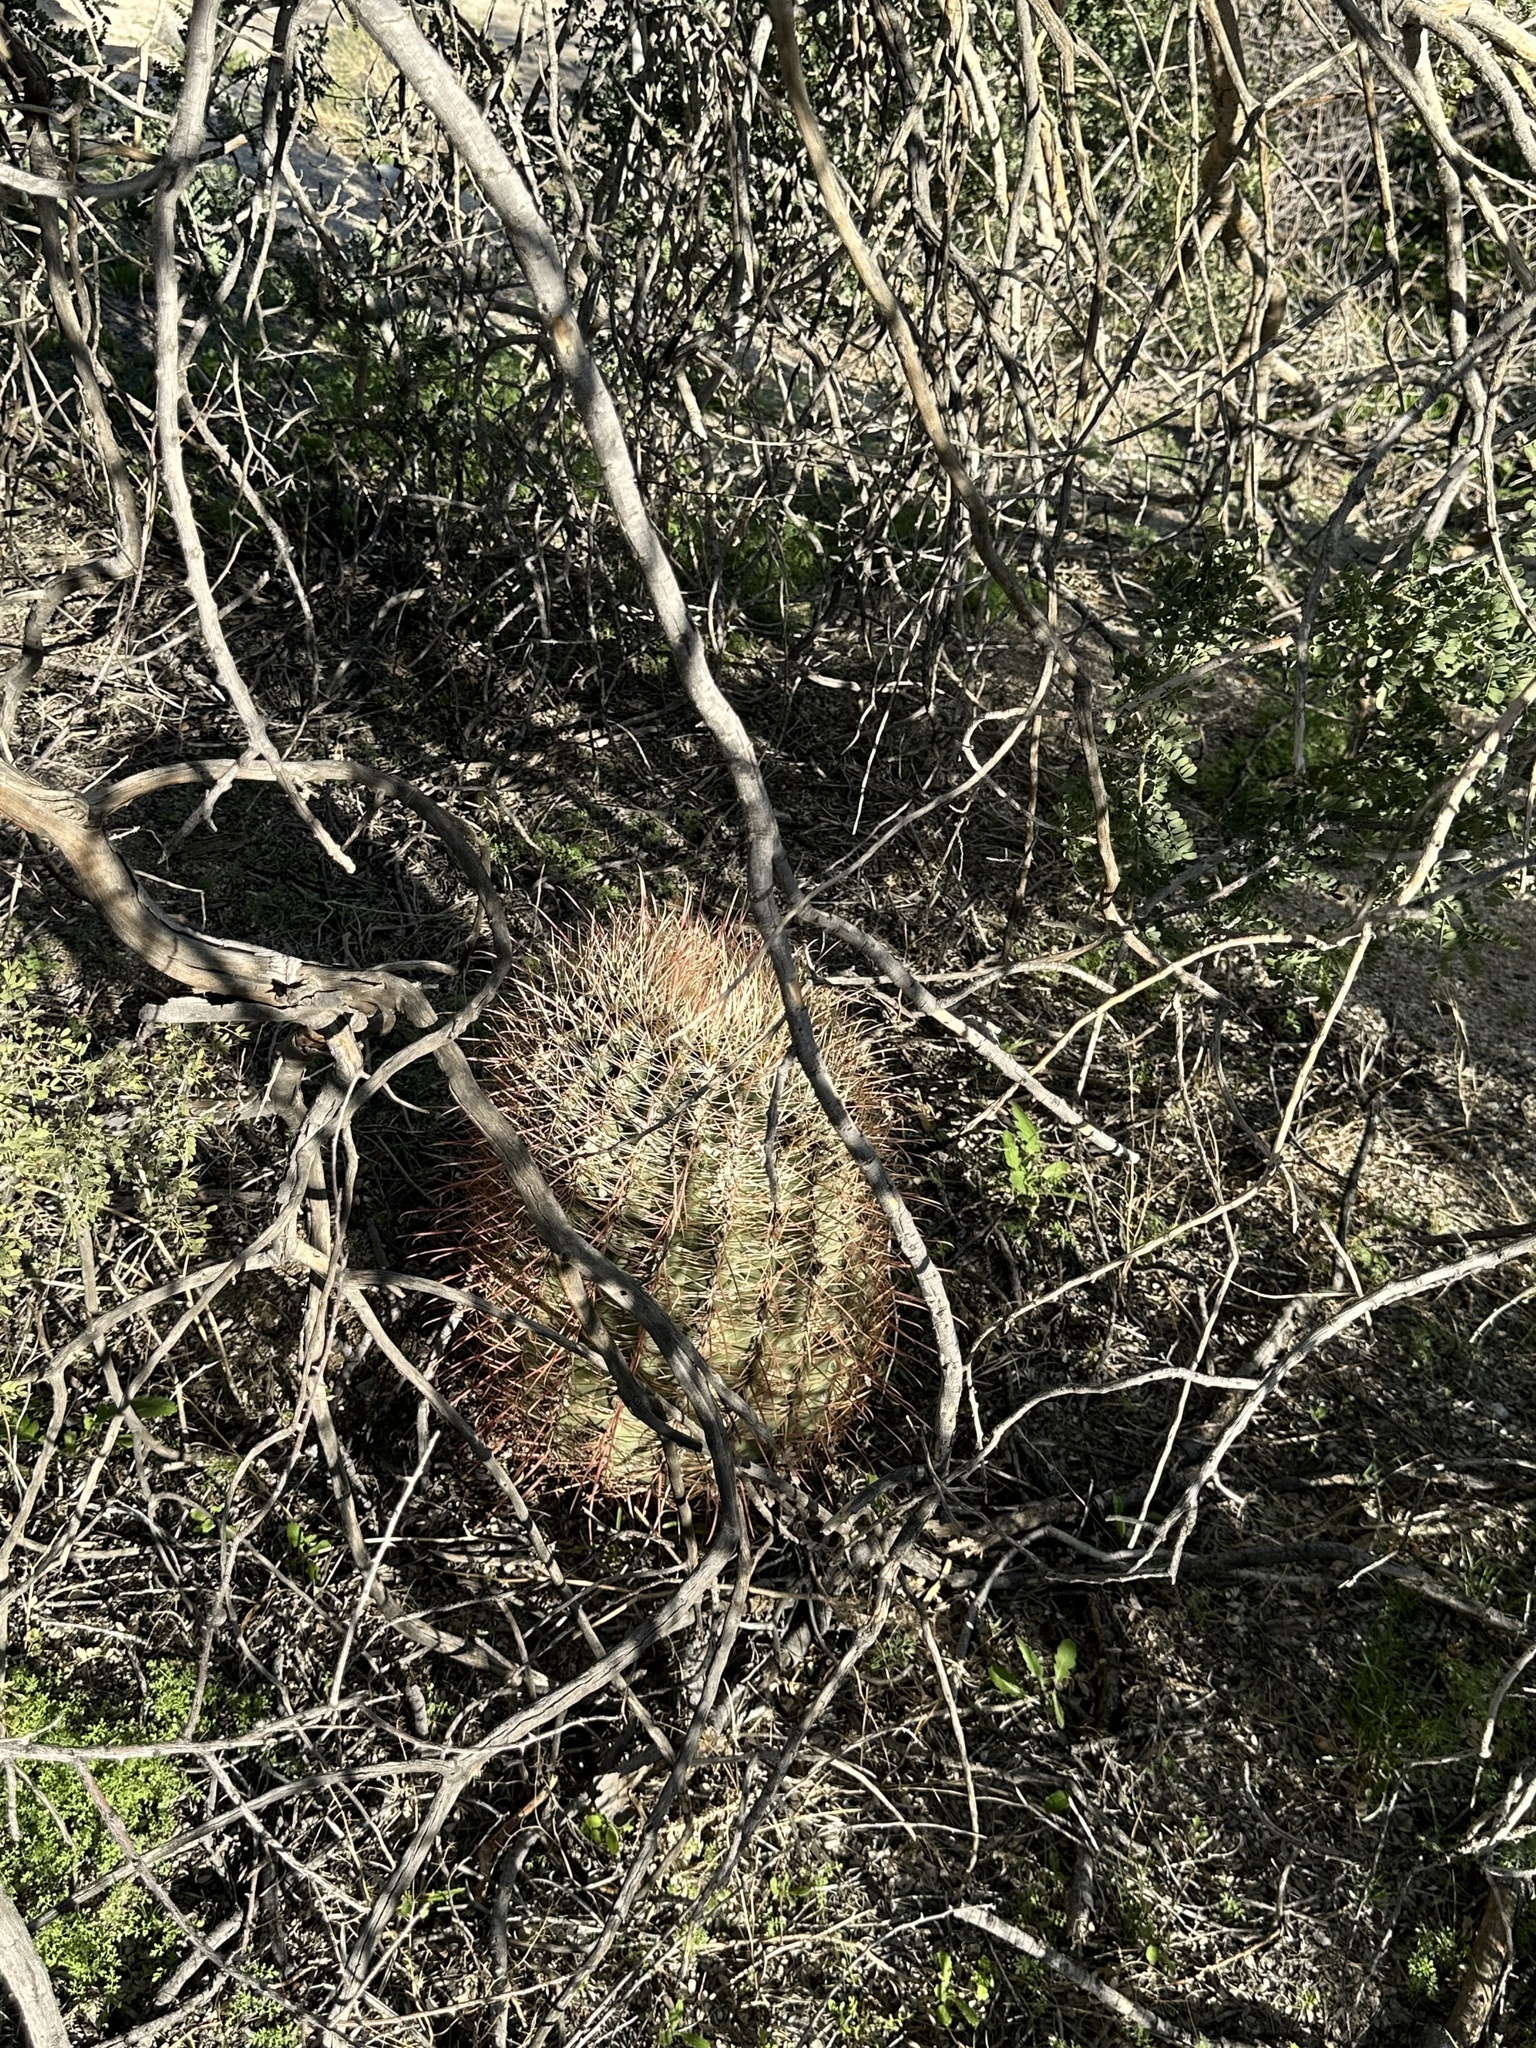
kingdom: Plantae
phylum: Tracheophyta
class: Magnoliopsida
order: Caryophyllales
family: Cactaceae
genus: Ferocactus
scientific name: Ferocactus cylindraceus
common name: California barrel cactus
